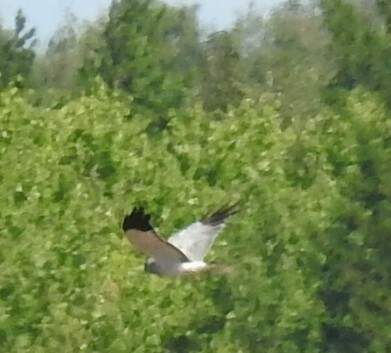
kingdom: Animalia
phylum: Chordata
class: Aves
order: Accipitriformes
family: Accipitridae
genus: Circus
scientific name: Circus cyaneus
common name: Hen harrier
